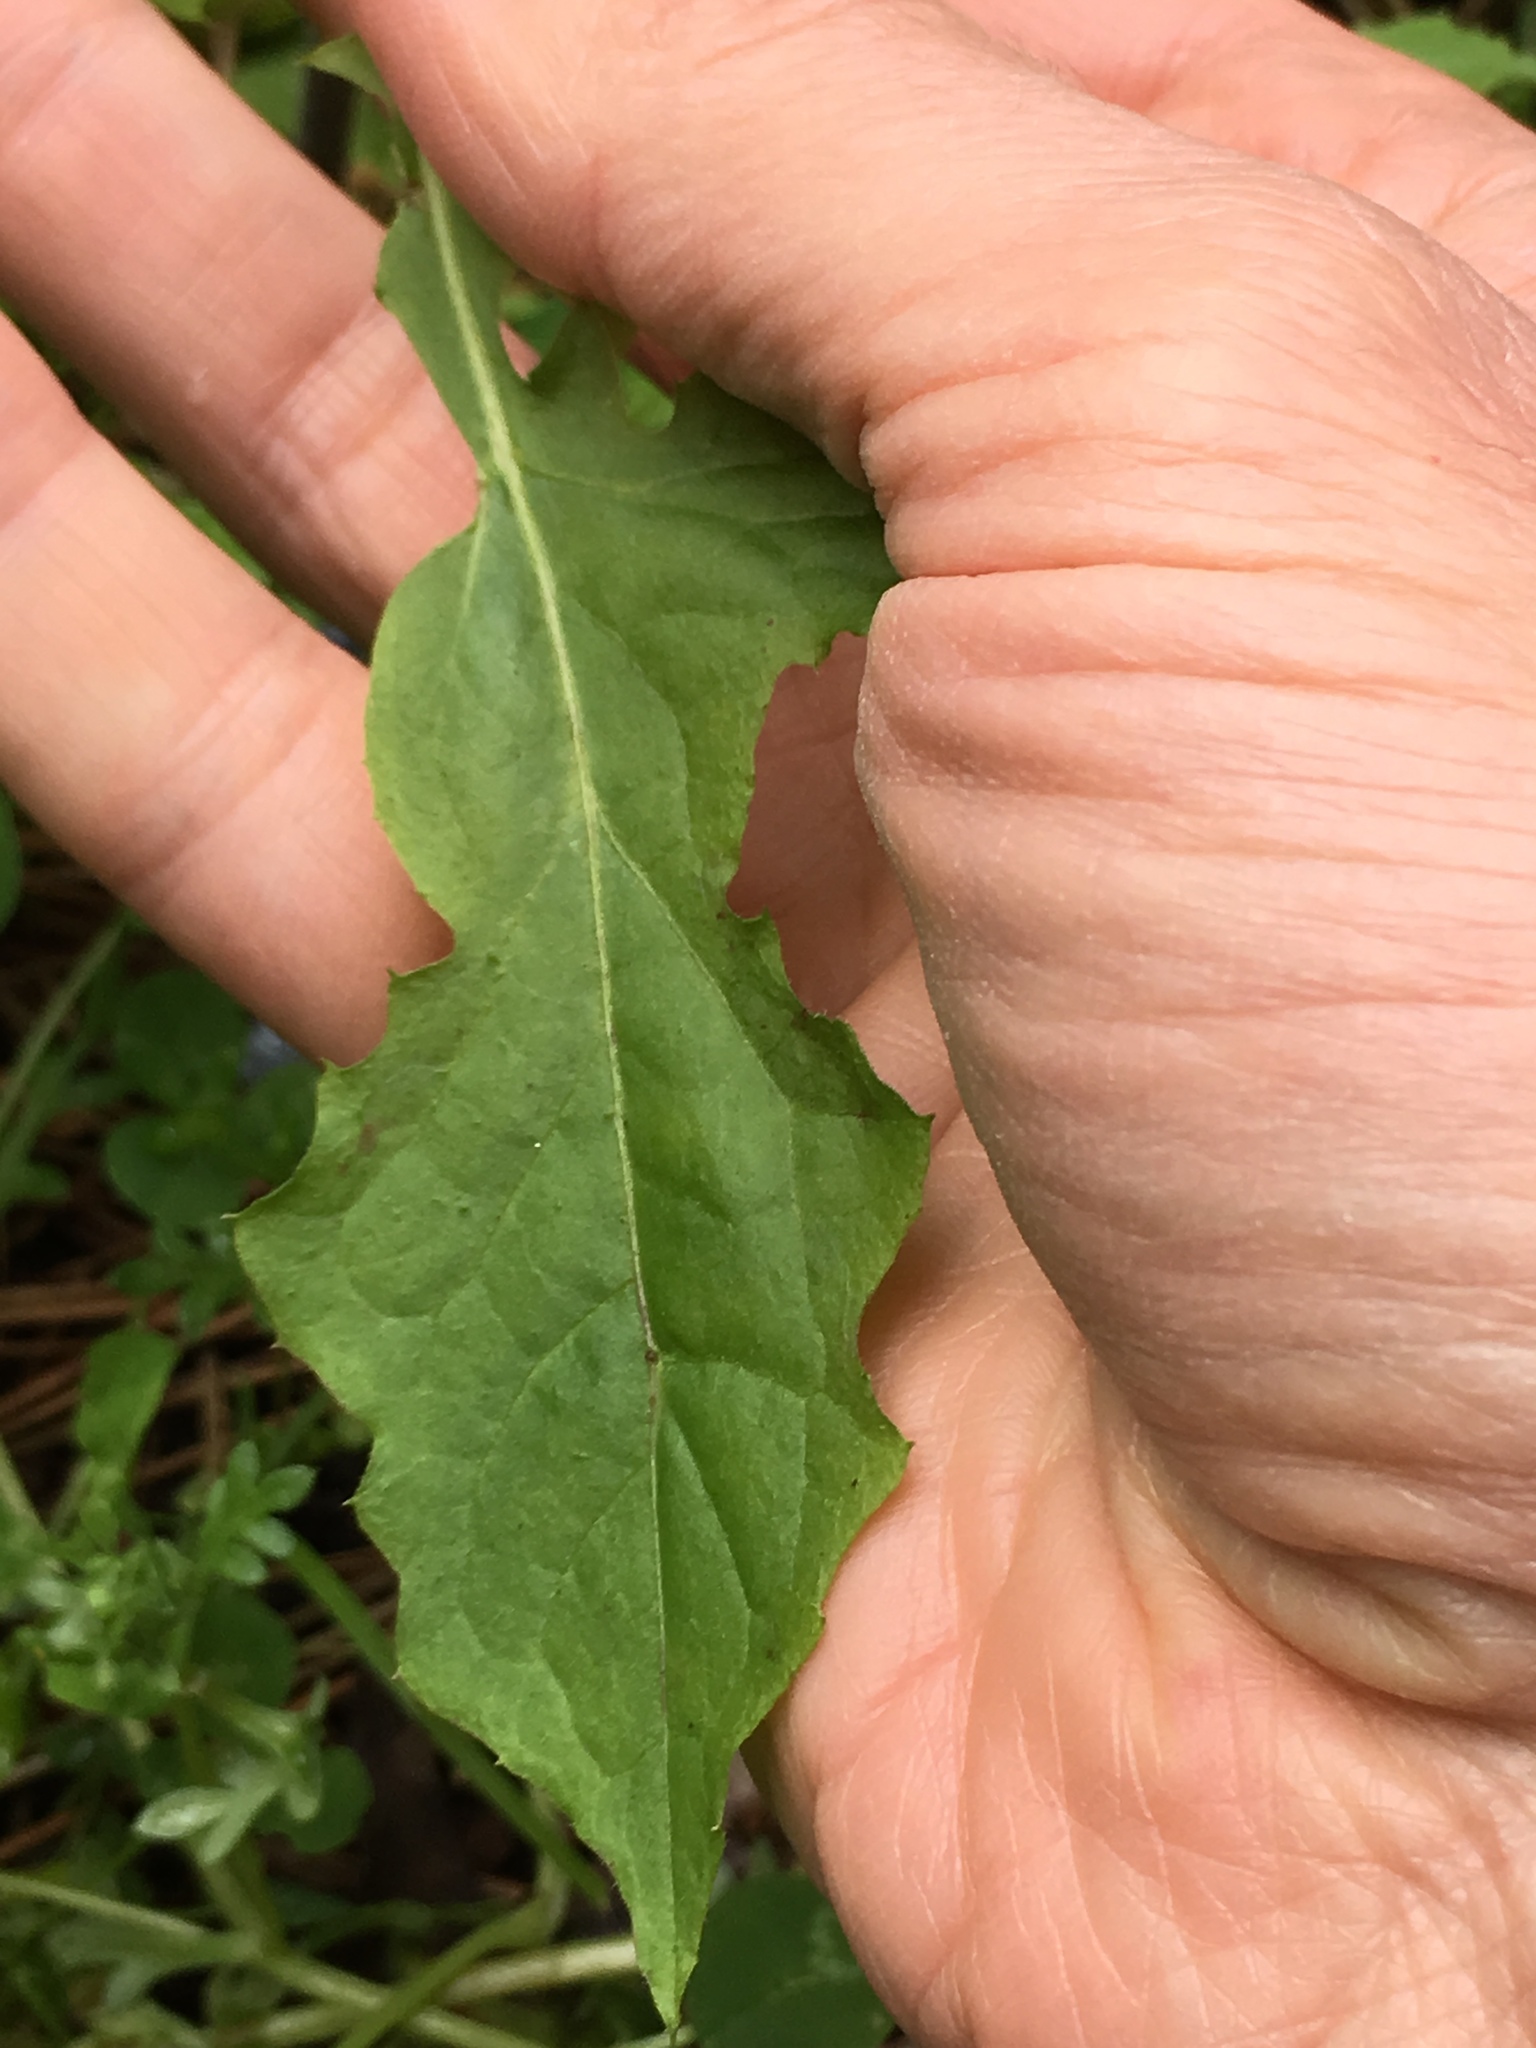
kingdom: Plantae
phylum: Tracheophyta
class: Magnoliopsida
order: Asterales
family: Asteraceae
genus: Youngia
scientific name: Youngia japonica
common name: Oriental false hawksbeard
